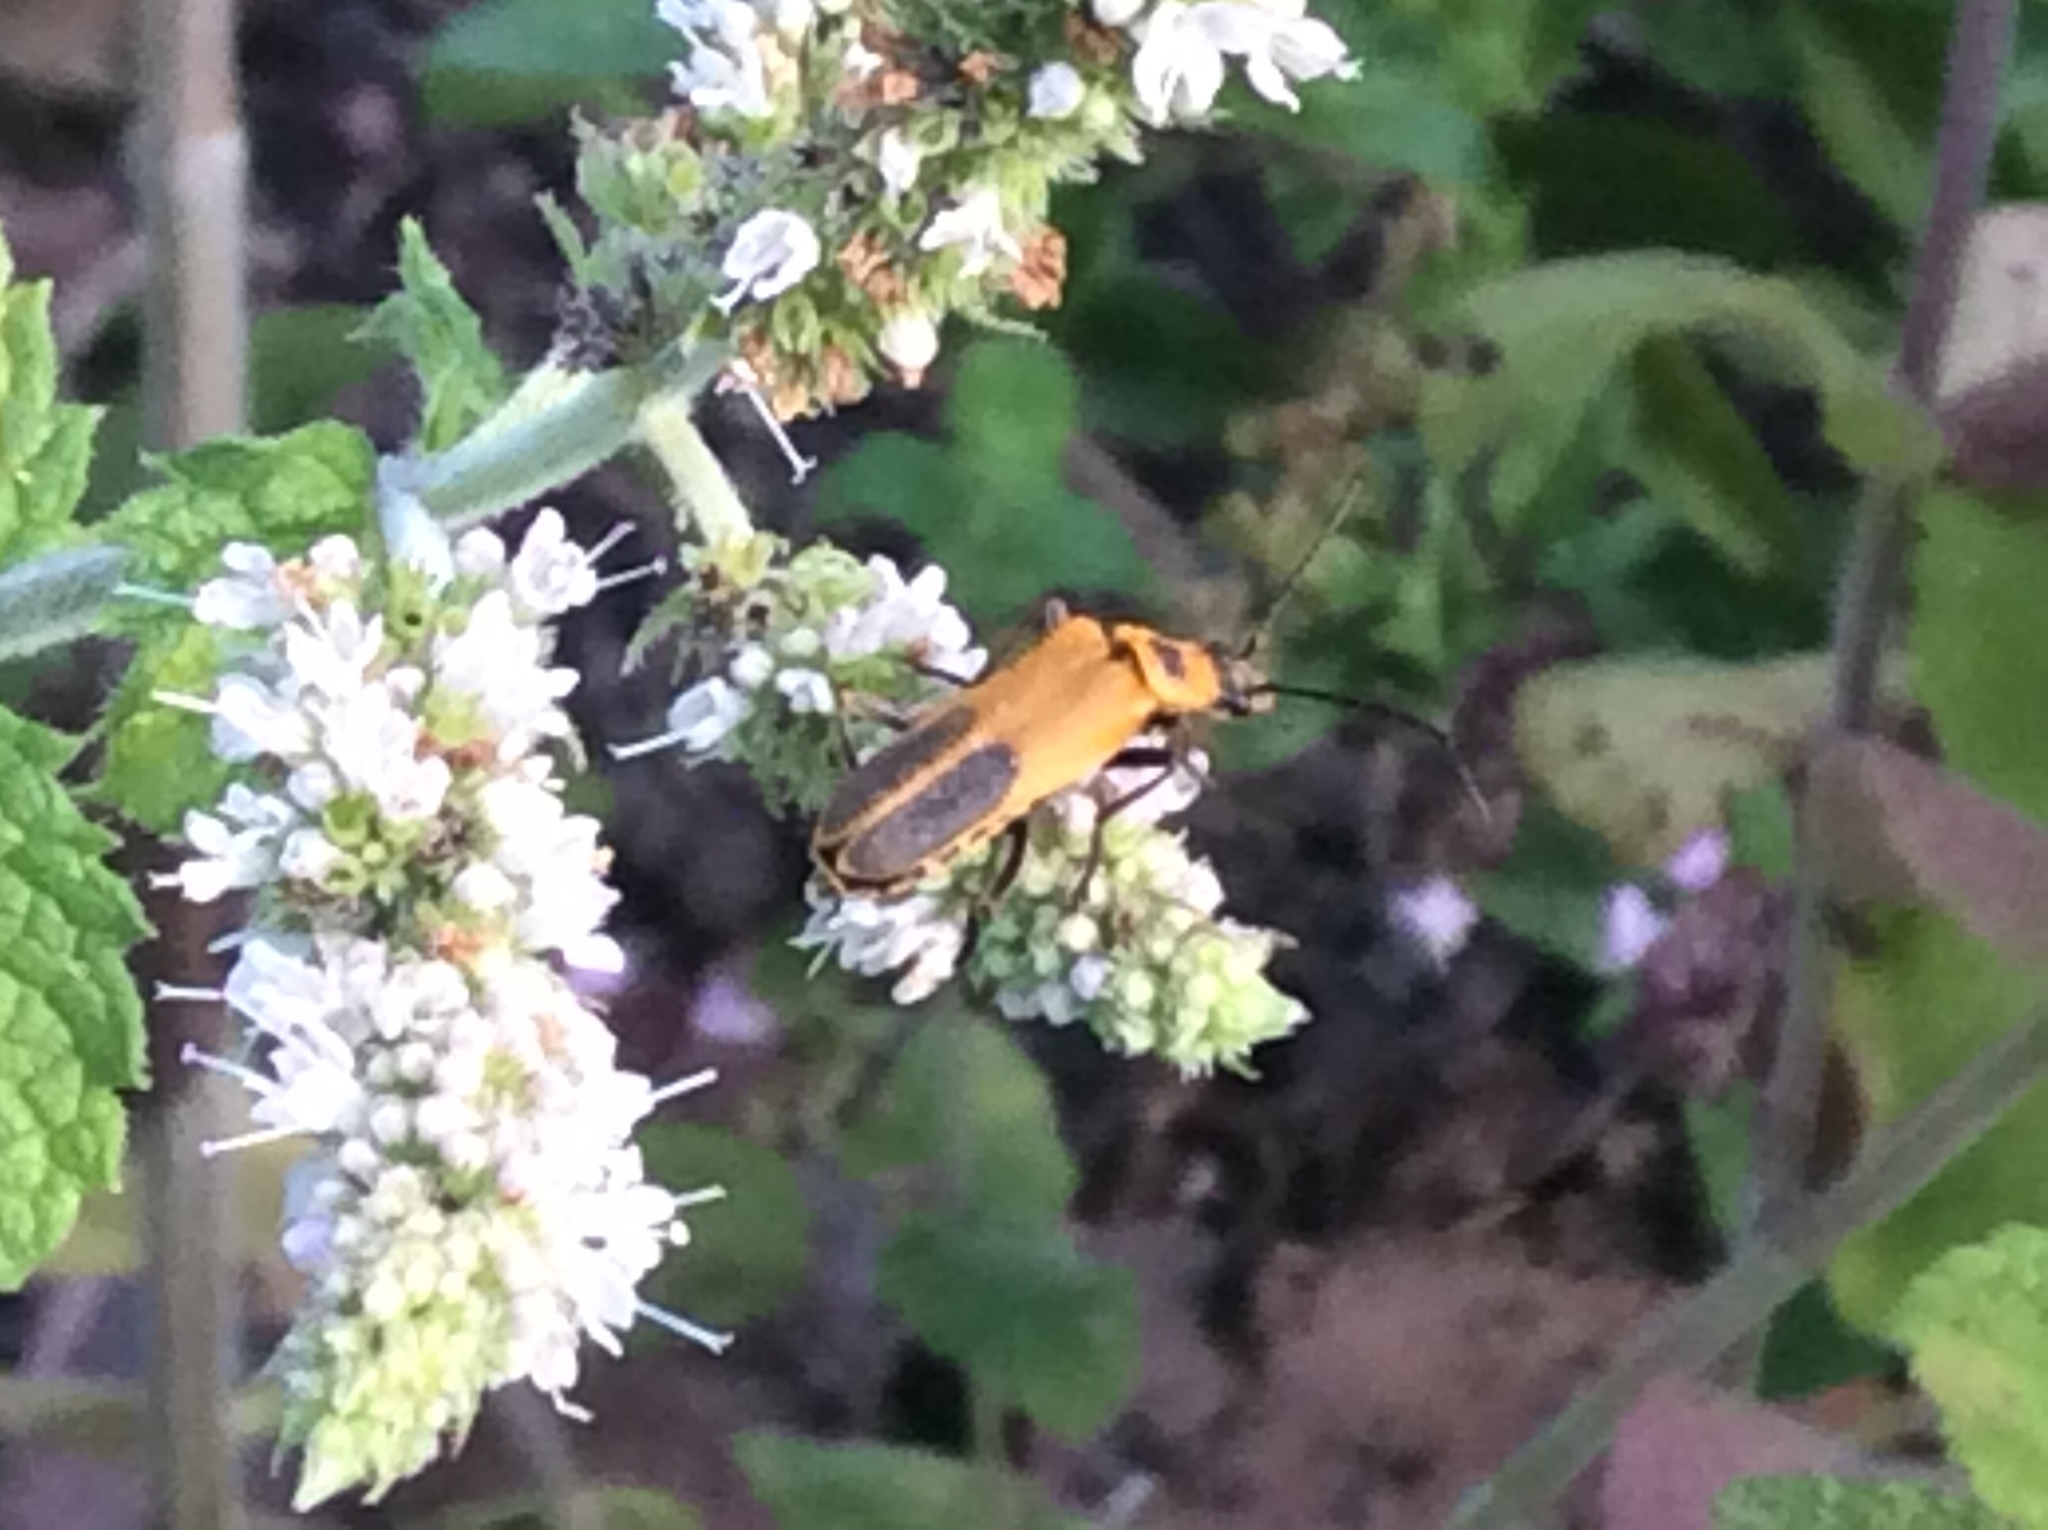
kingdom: Animalia
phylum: Arthropoda
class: Insecta
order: Coleoptera
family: Cantharidae
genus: Chauliognathus
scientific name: Chauliognathus pensylvanicus
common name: Goldenrod soldier beetle
